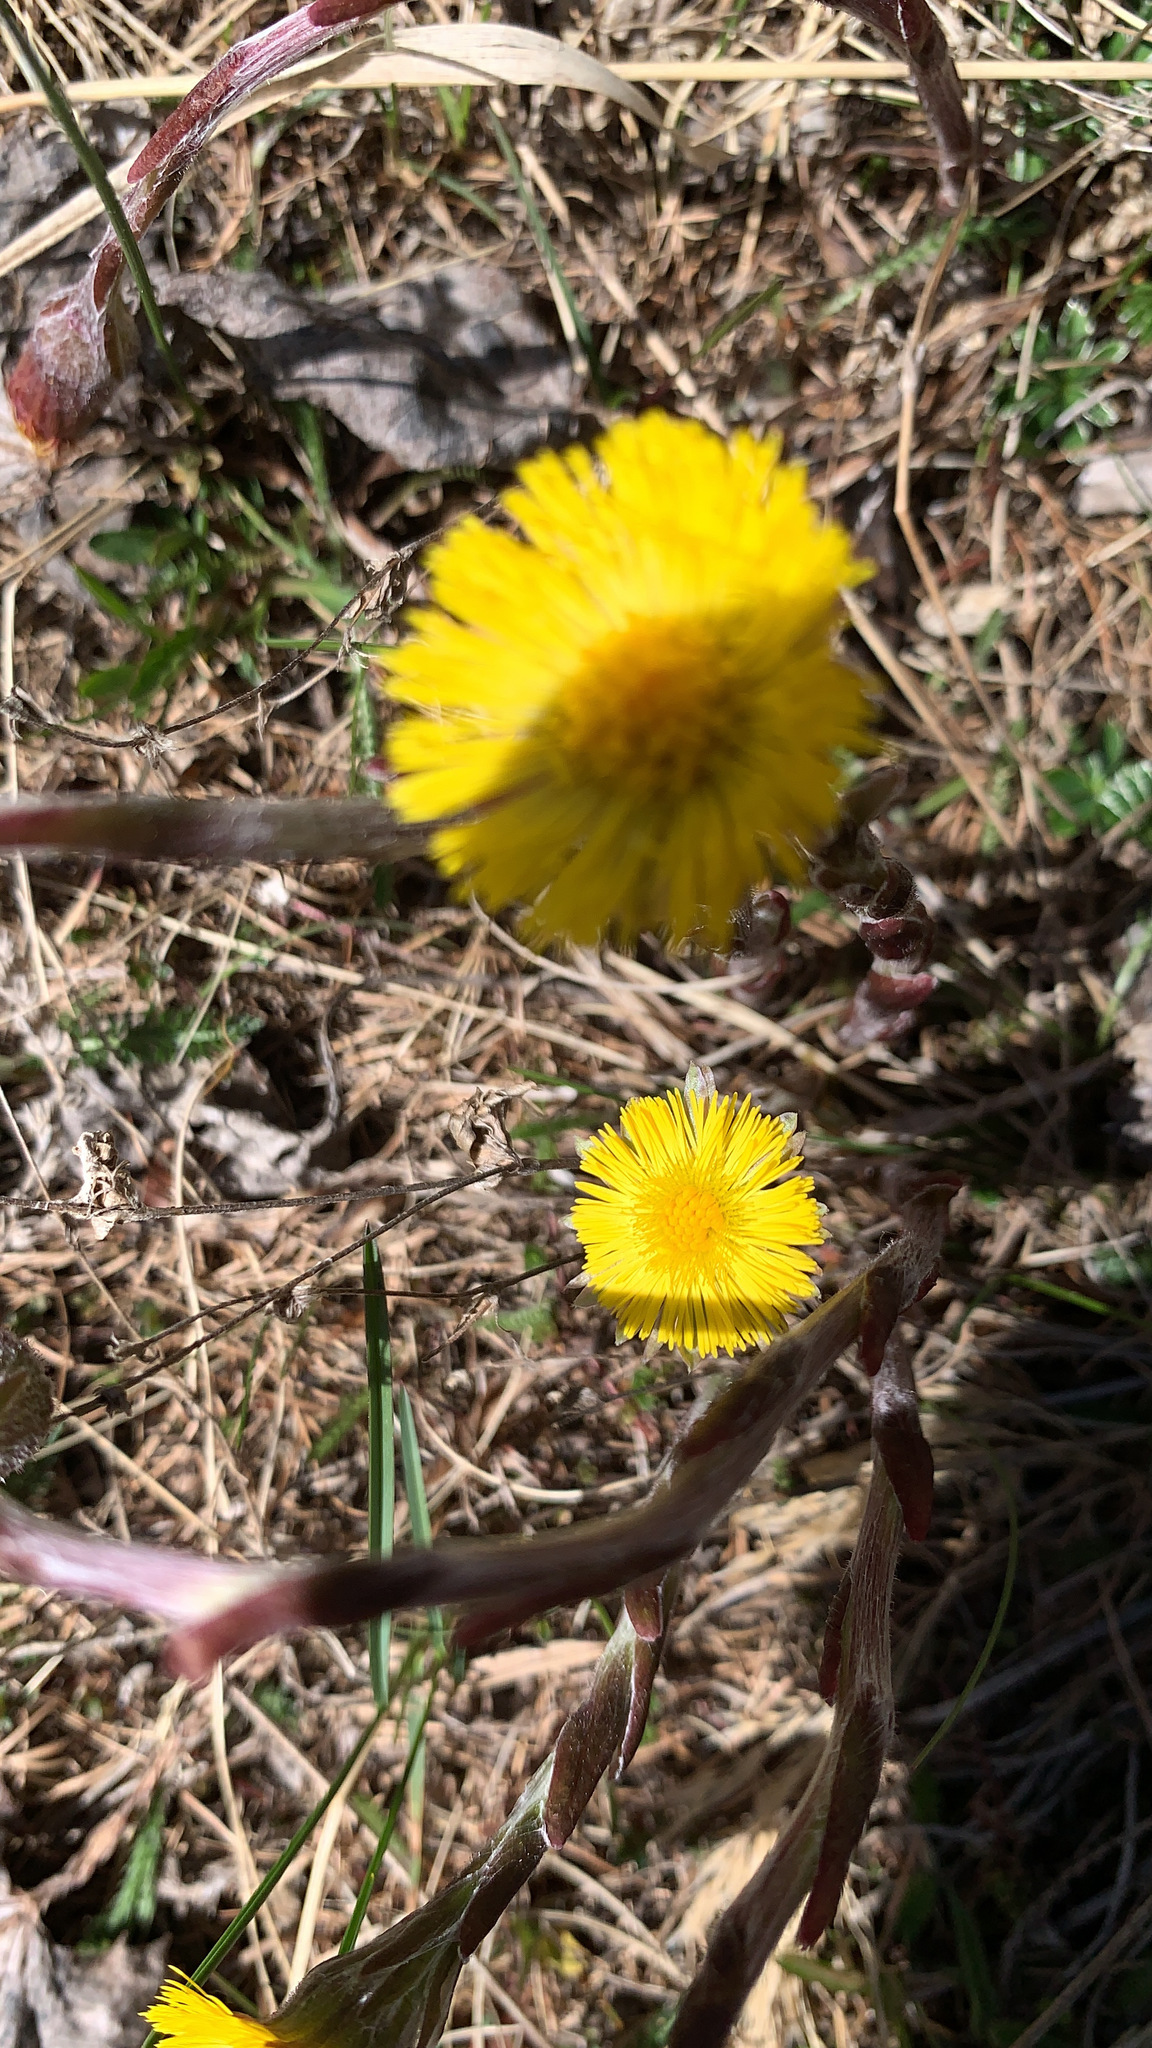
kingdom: Plantae
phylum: Tracheophyta
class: Magnoliopsida
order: Asterales
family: Asteraceae
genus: Tussilago
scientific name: Tussilago farfara
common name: Coltsfoot
